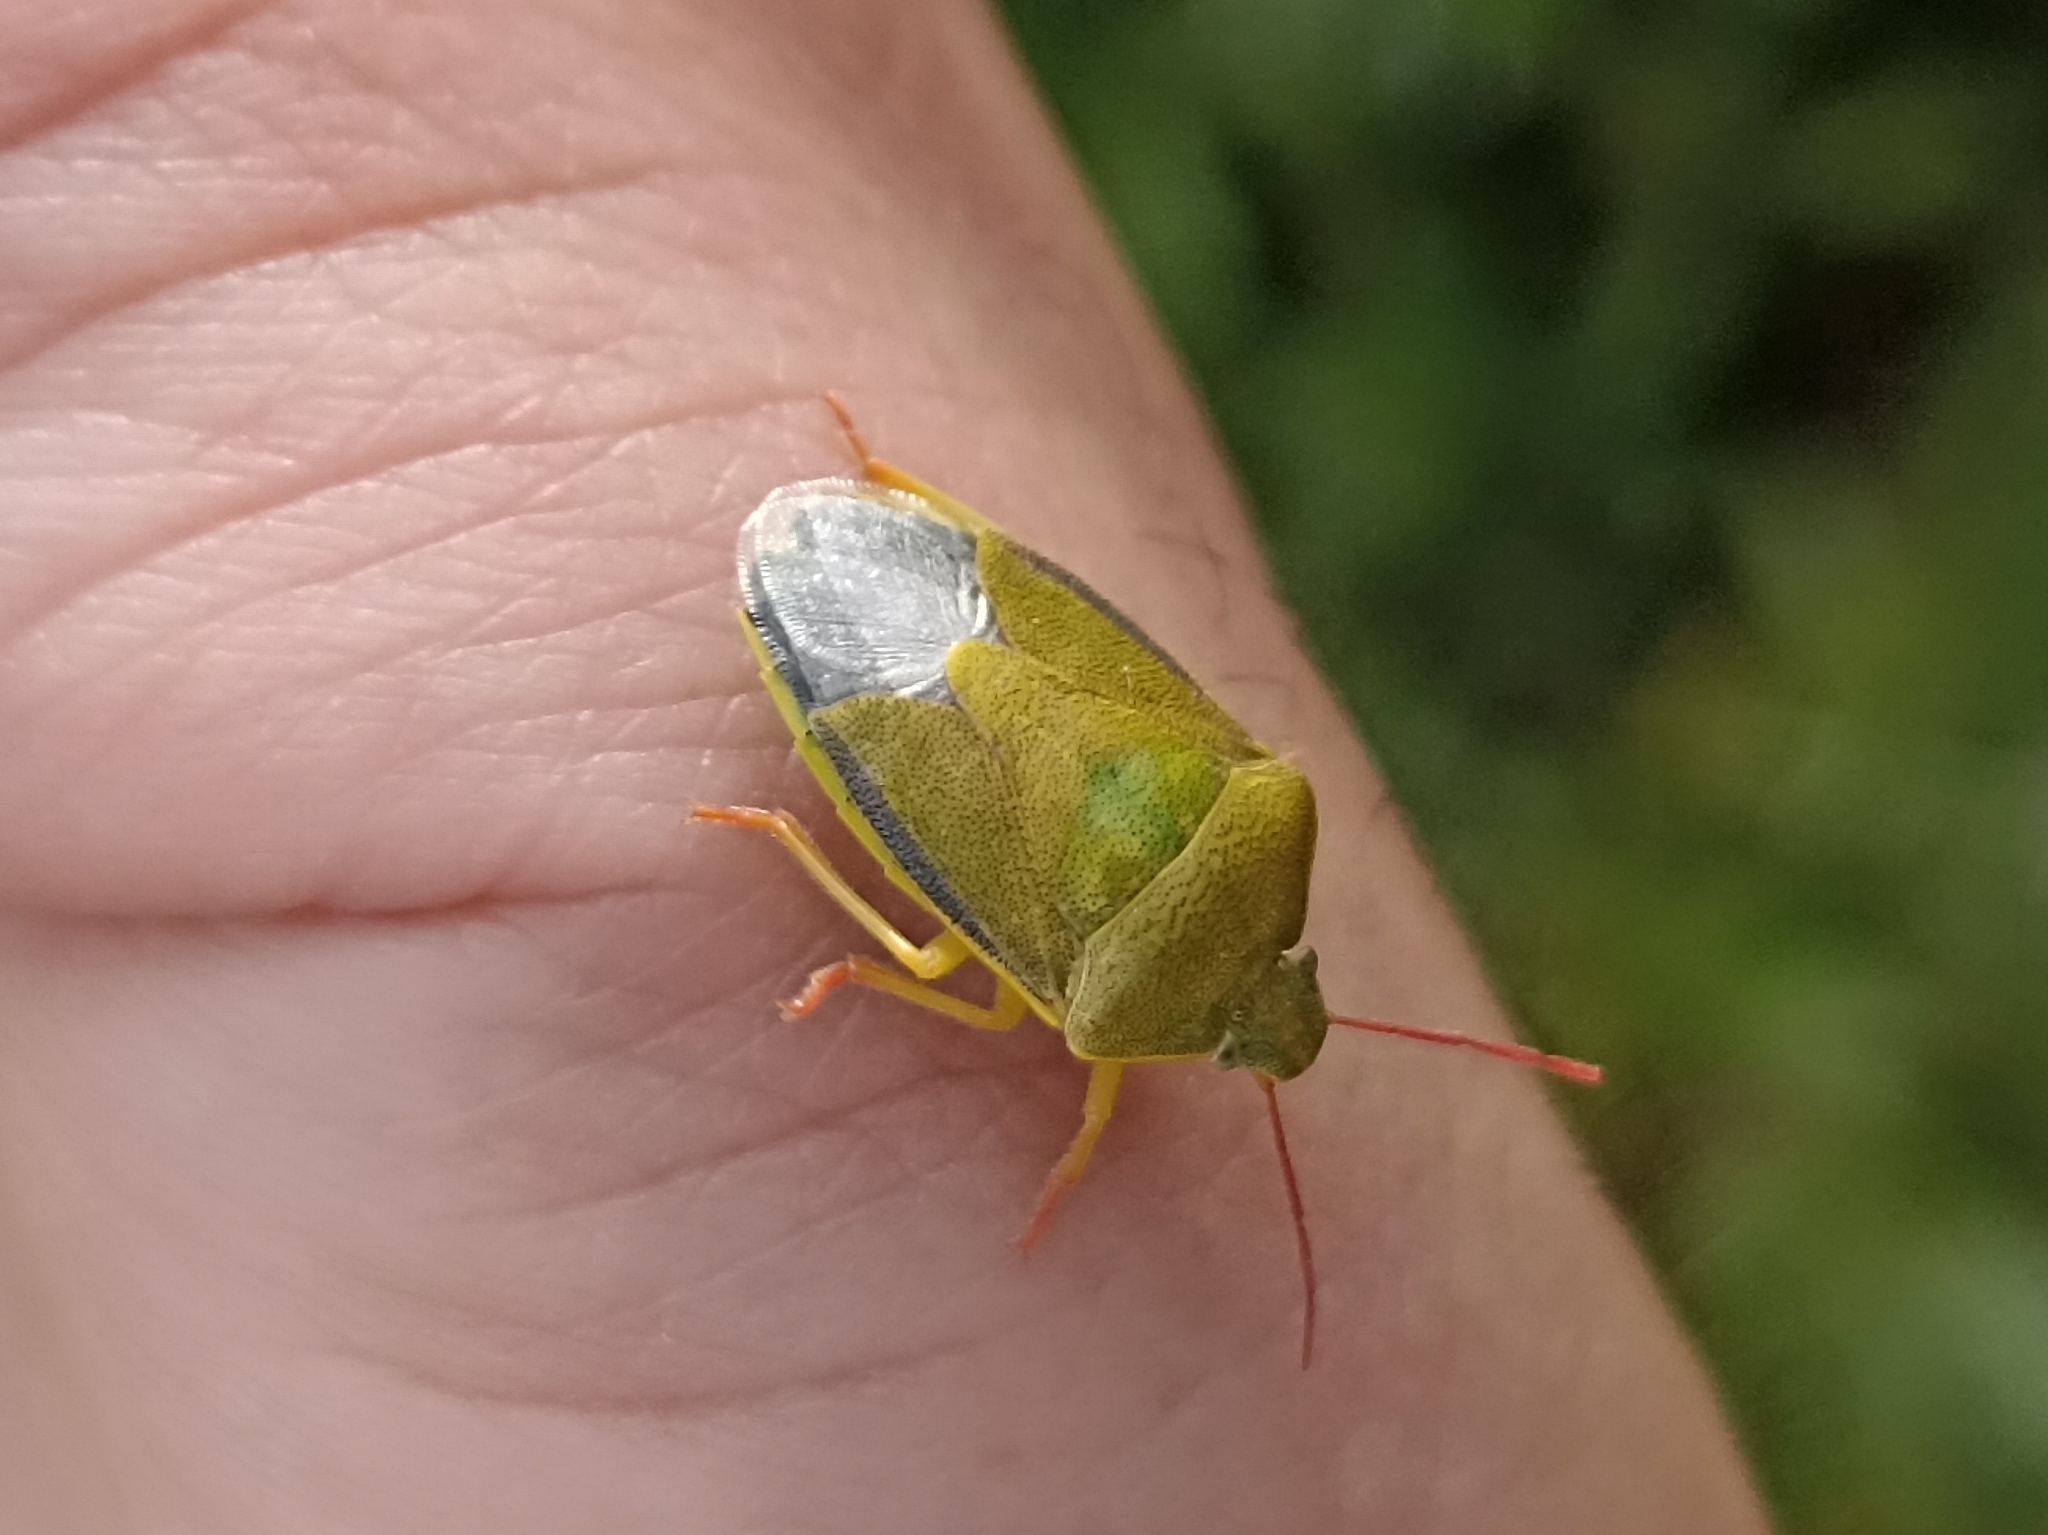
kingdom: Animalia
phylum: Arthropoda
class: Insecta
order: Hemiptera
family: Pentatomidae
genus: Piezodorus
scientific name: Piezodorus lituratus
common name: Stink bug
